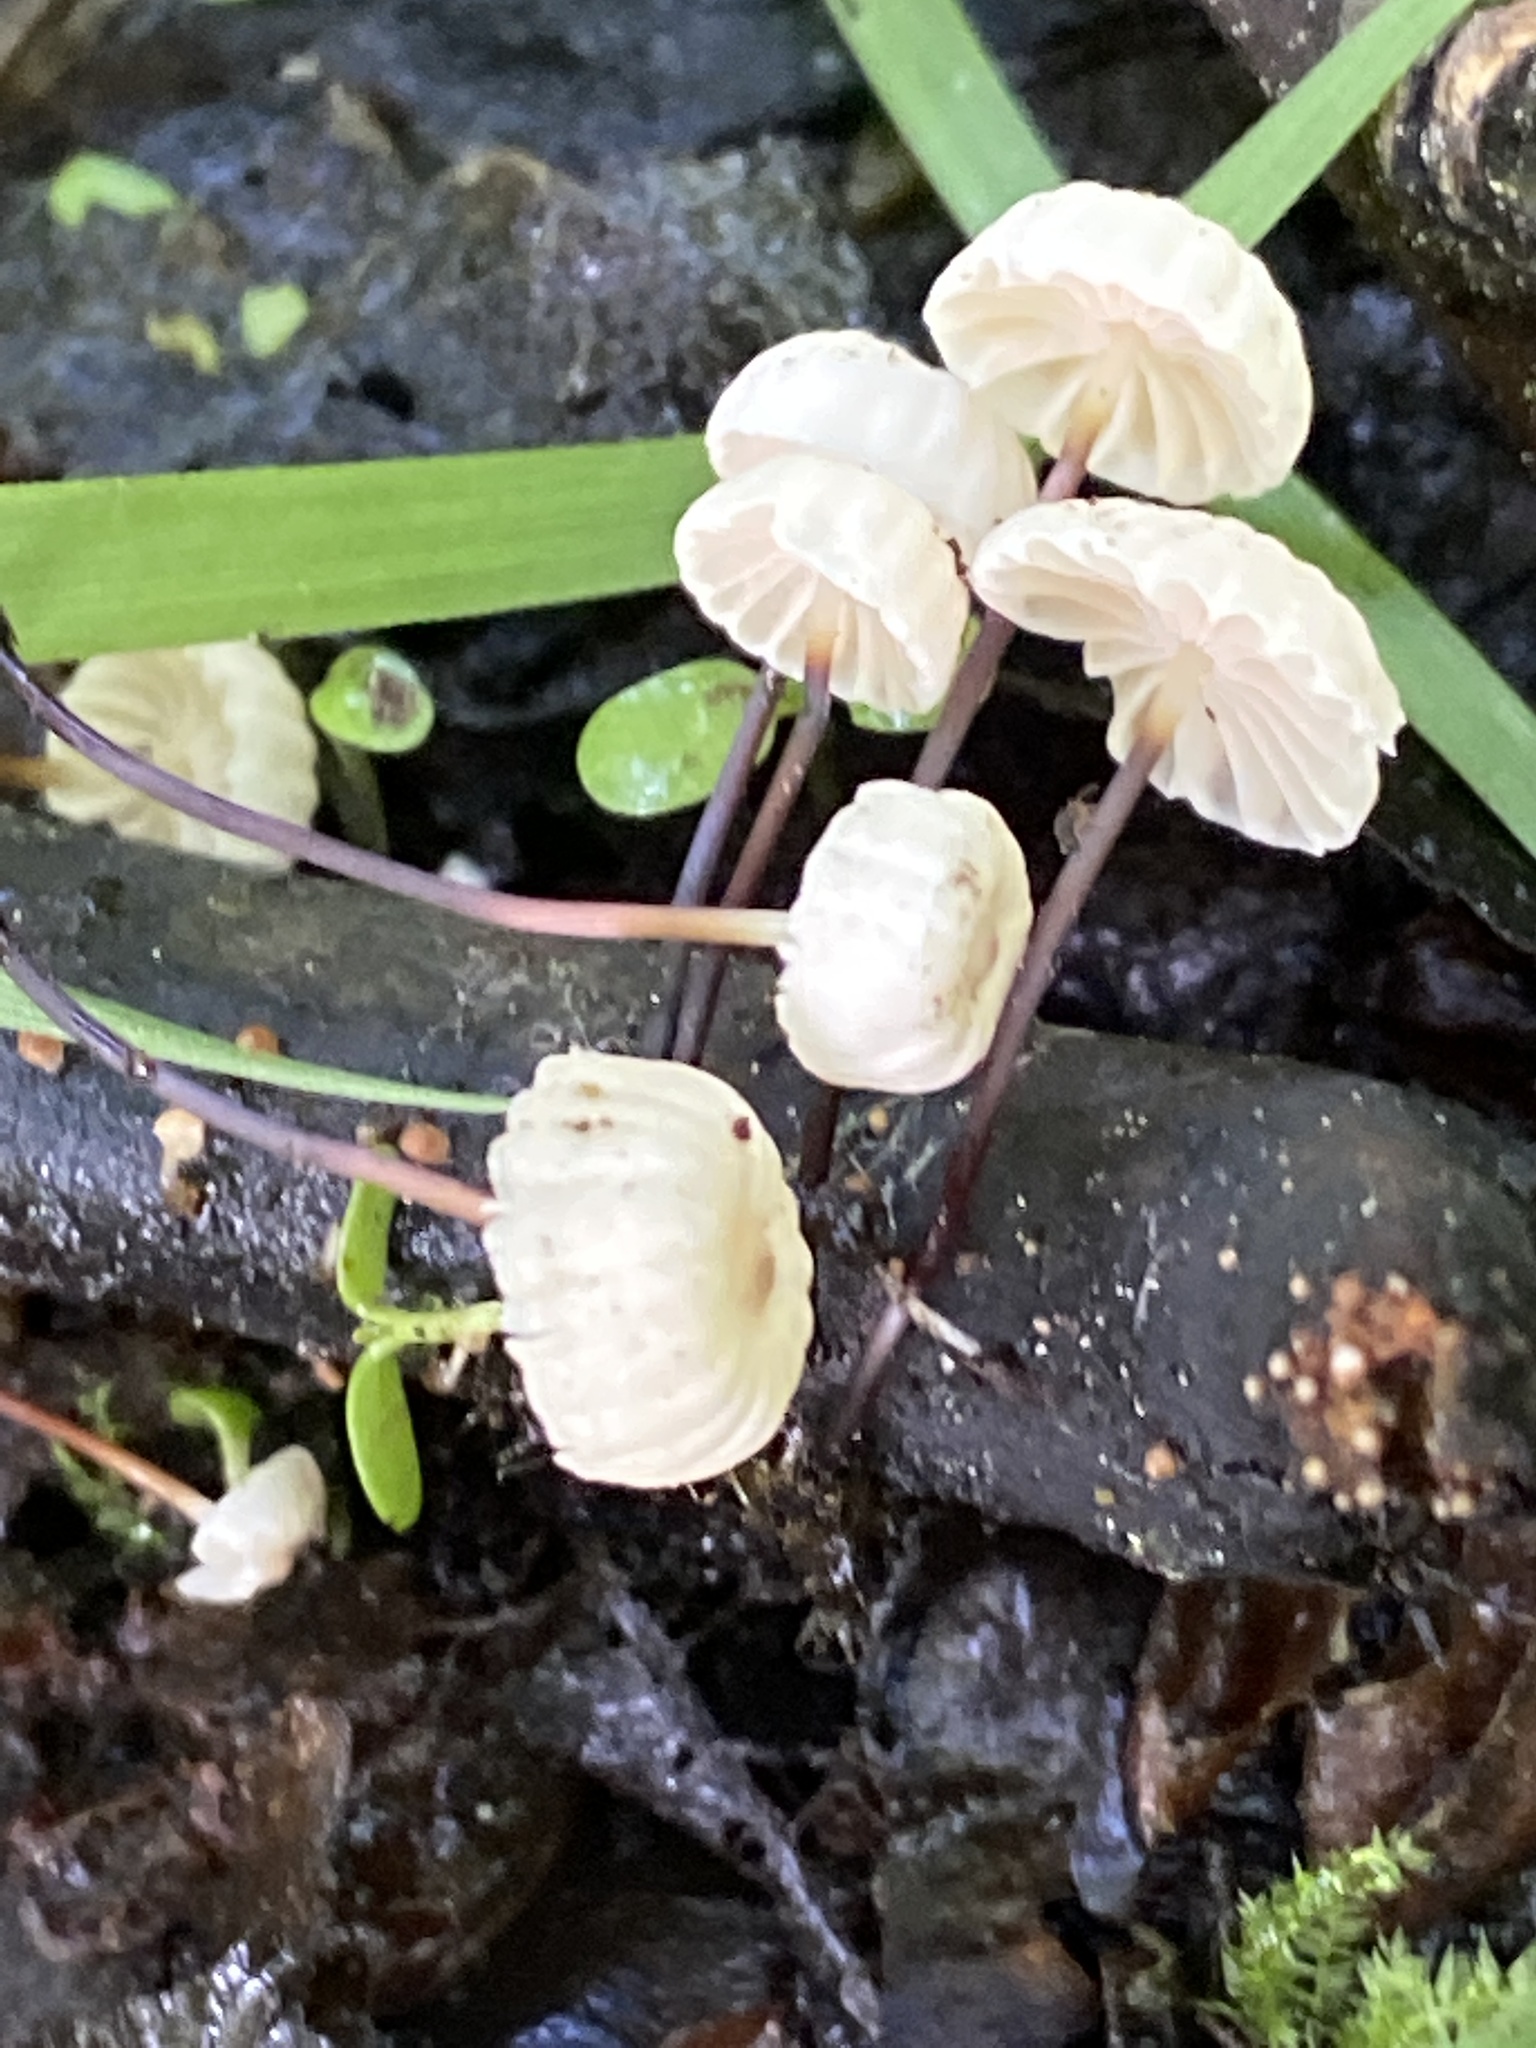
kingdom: Fungi
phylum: Basidiomycota
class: Agaricomycetes
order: Agaricales
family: Marasmiaceae
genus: Marasmius
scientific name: Marasmius rotula
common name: Collared parachute
